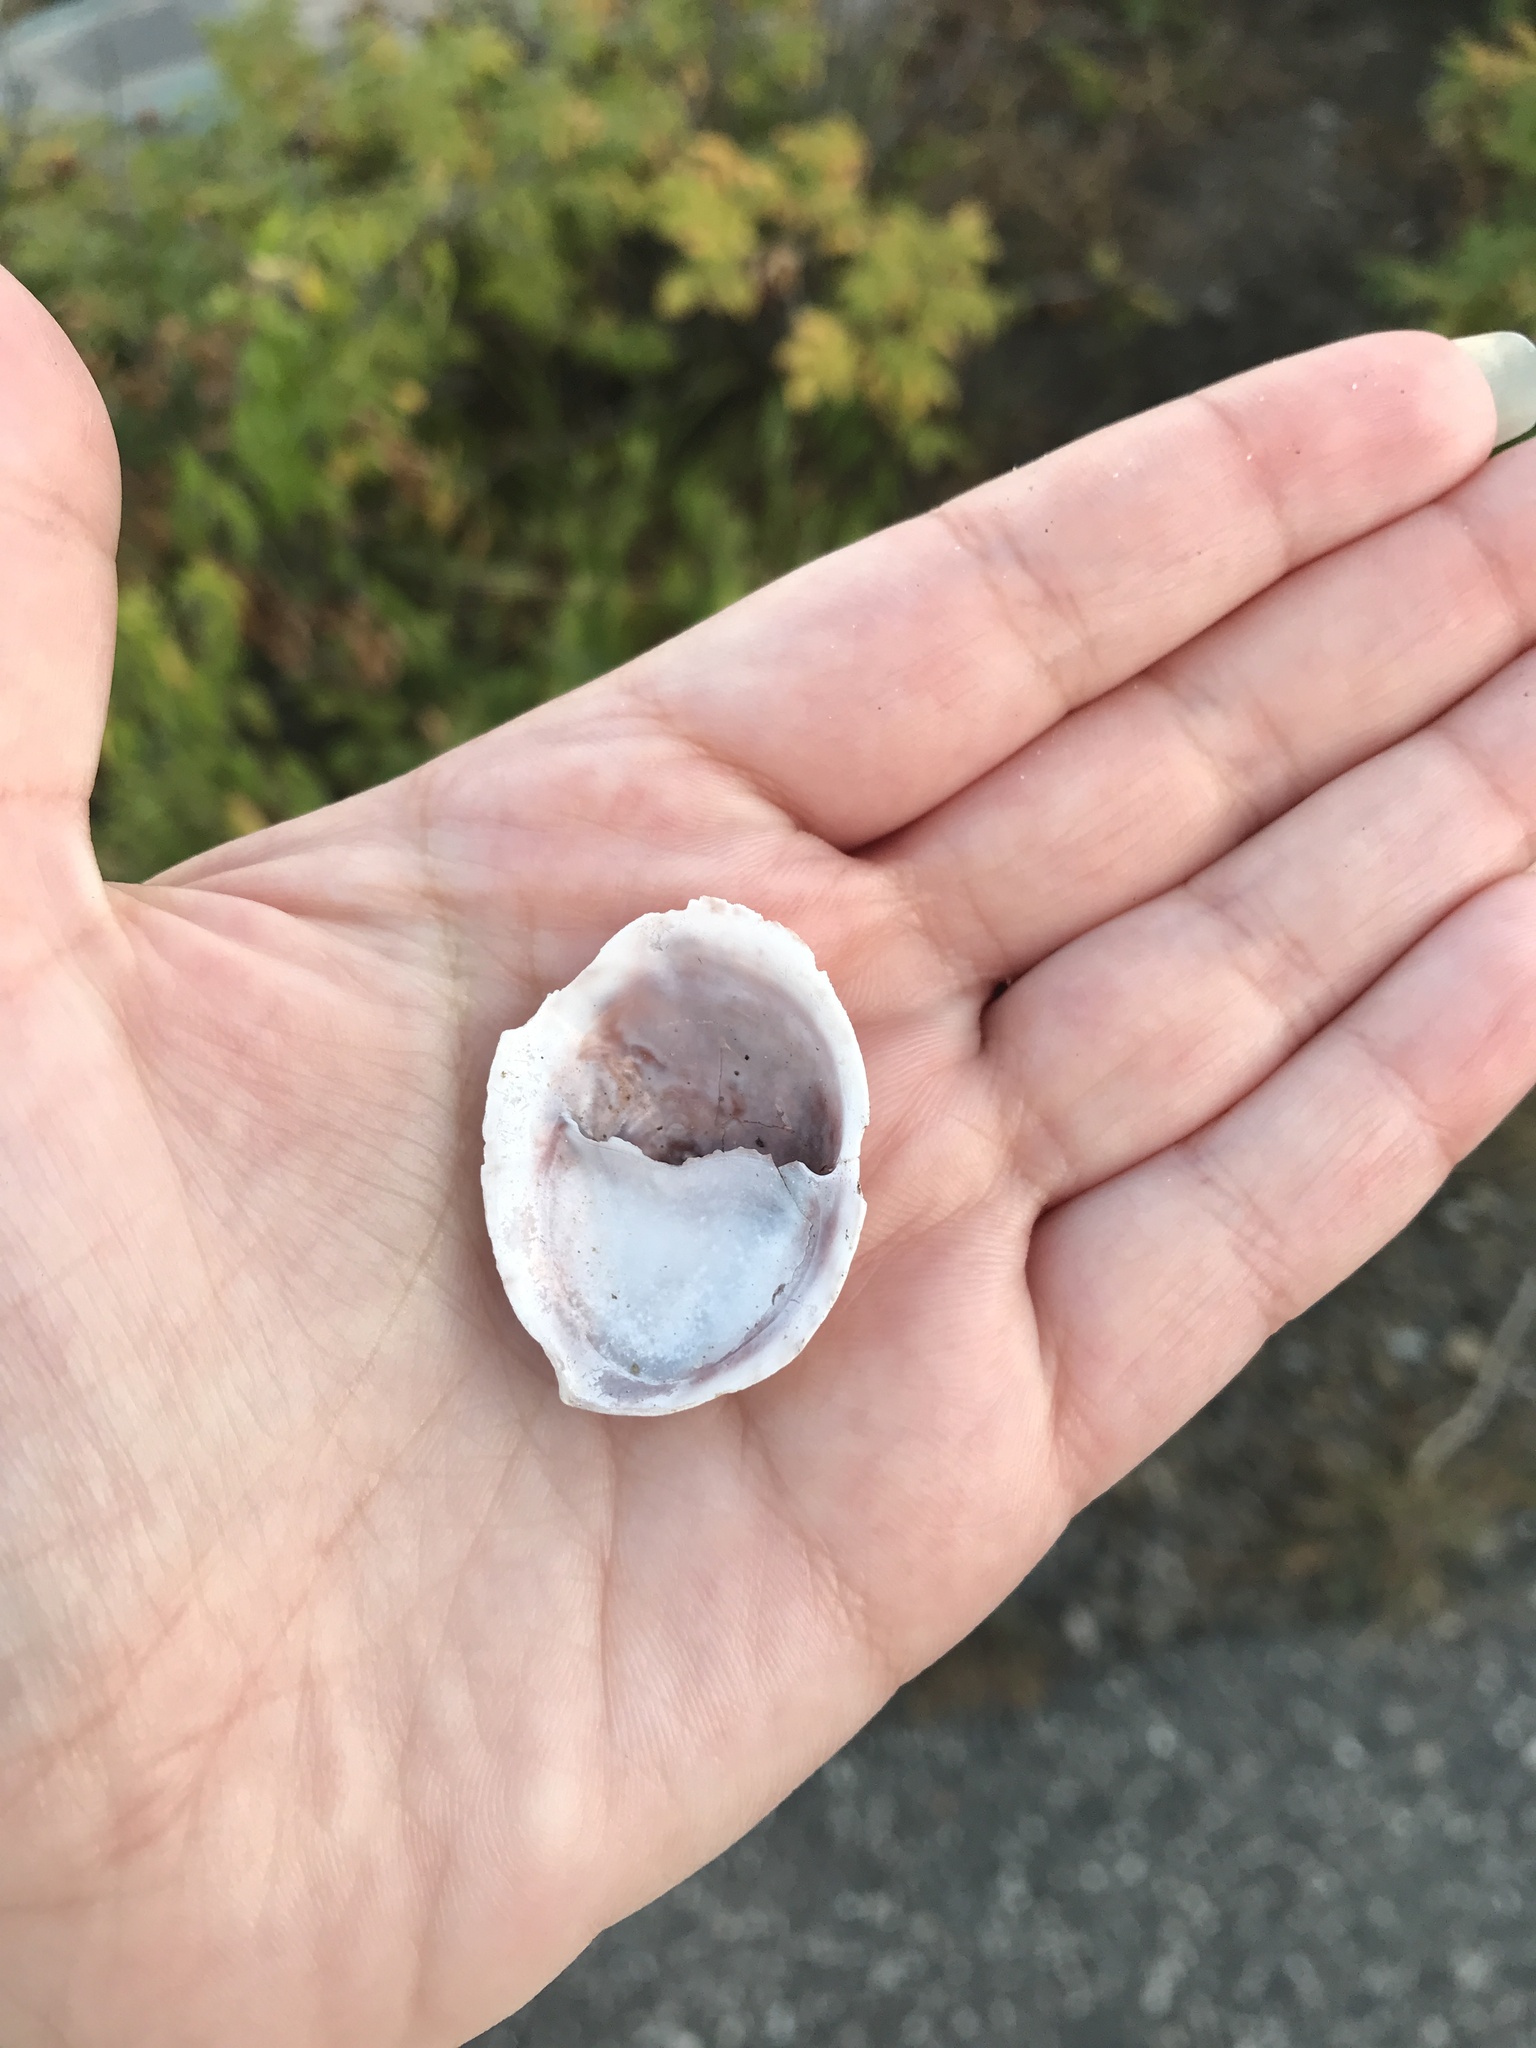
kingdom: Animalia
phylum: Mollusca
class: Gastropoda
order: Littorinimorpha
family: Calyptraeidae
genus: Crepidula
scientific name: Crepidula fornicata
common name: Slipper limpet
